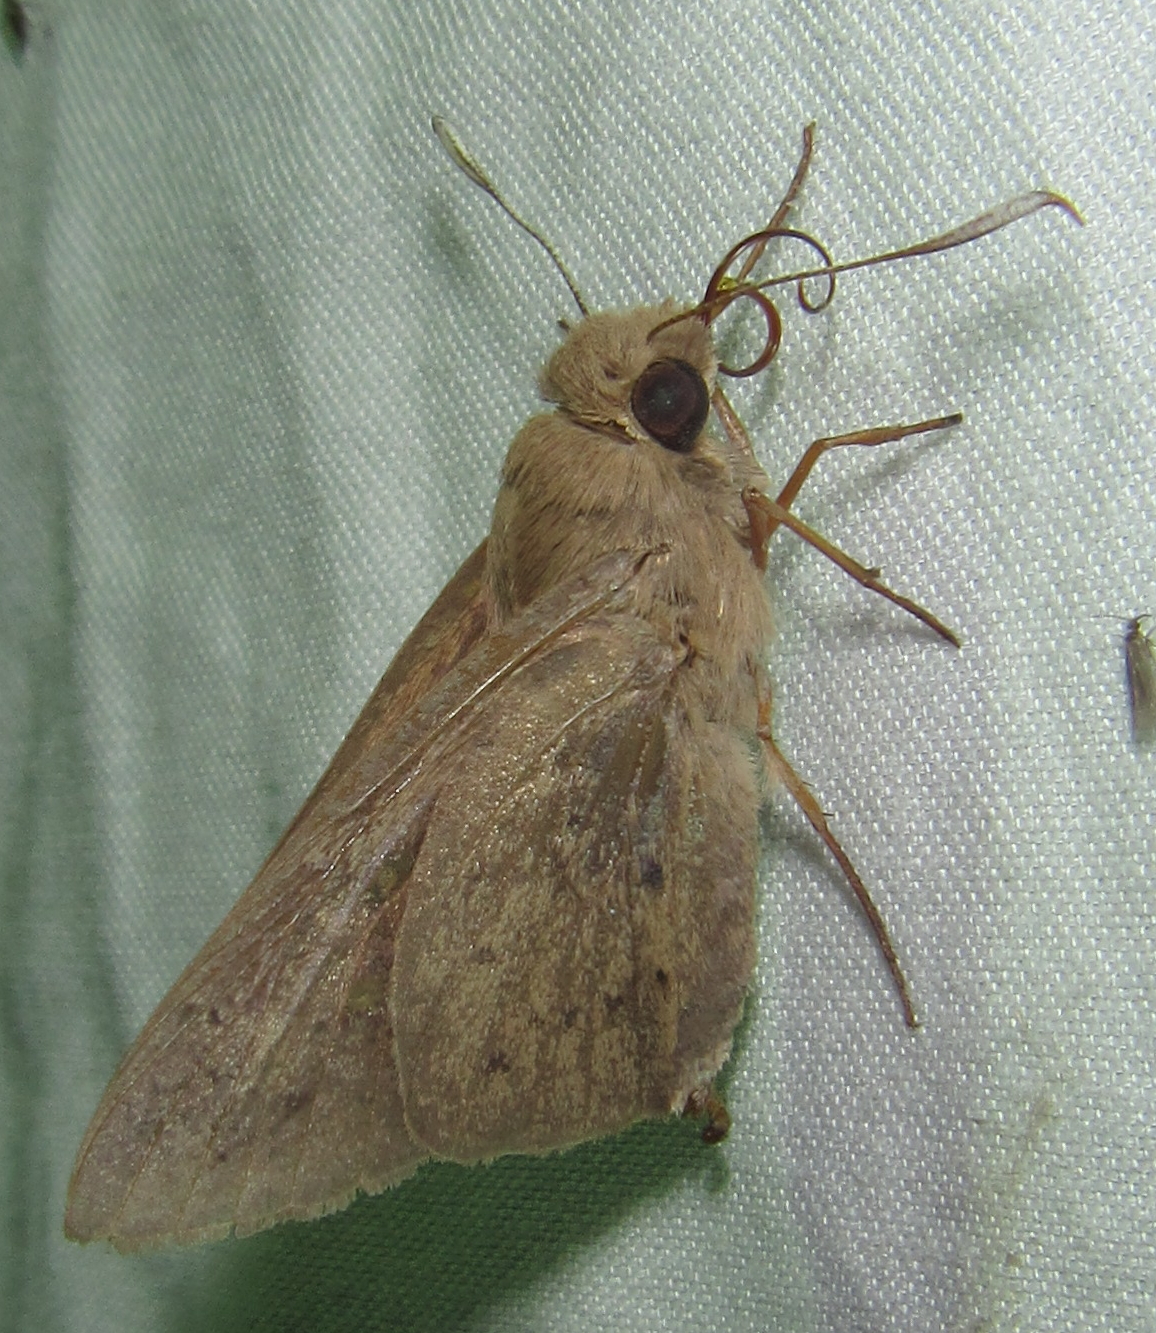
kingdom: Animalia
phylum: Arthropoda
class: Insecta
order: Lepidoptera
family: Hesperiidae
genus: Zophopetes
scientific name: Zophopetes dysmephila
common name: Palm-tree nightfighter
